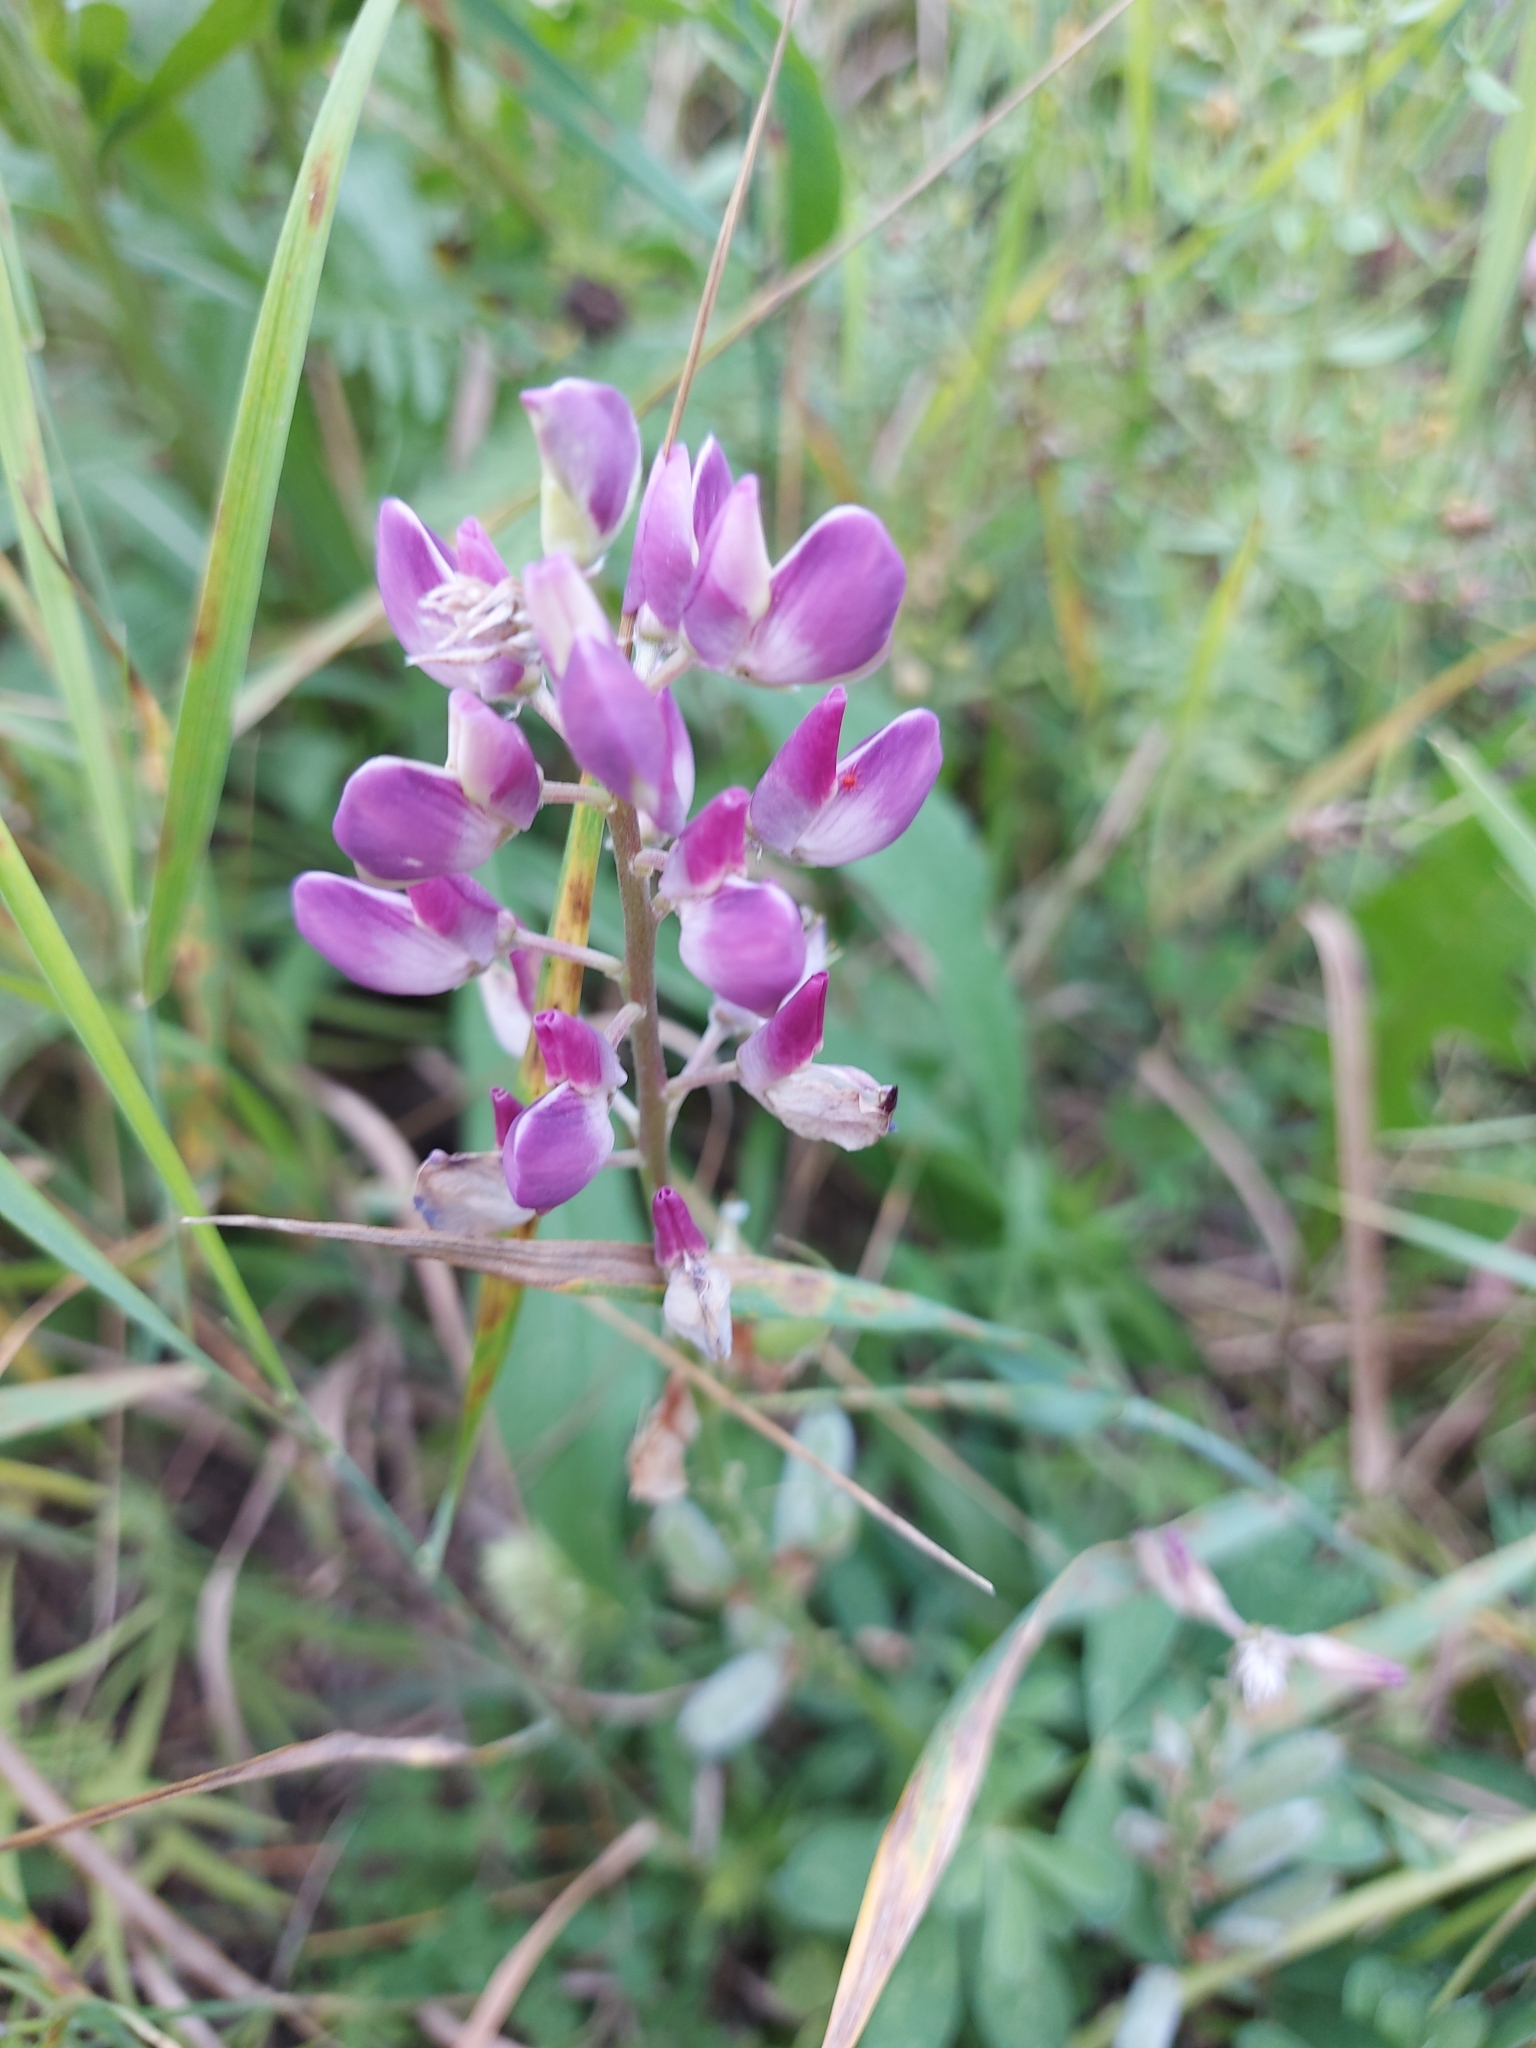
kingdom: Plantae
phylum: Tracheophyta
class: Magnoliopsida
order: Fabales
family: Fabaceae
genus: Lupinus
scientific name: Lupinus polyphyllus
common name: Garden lupin
